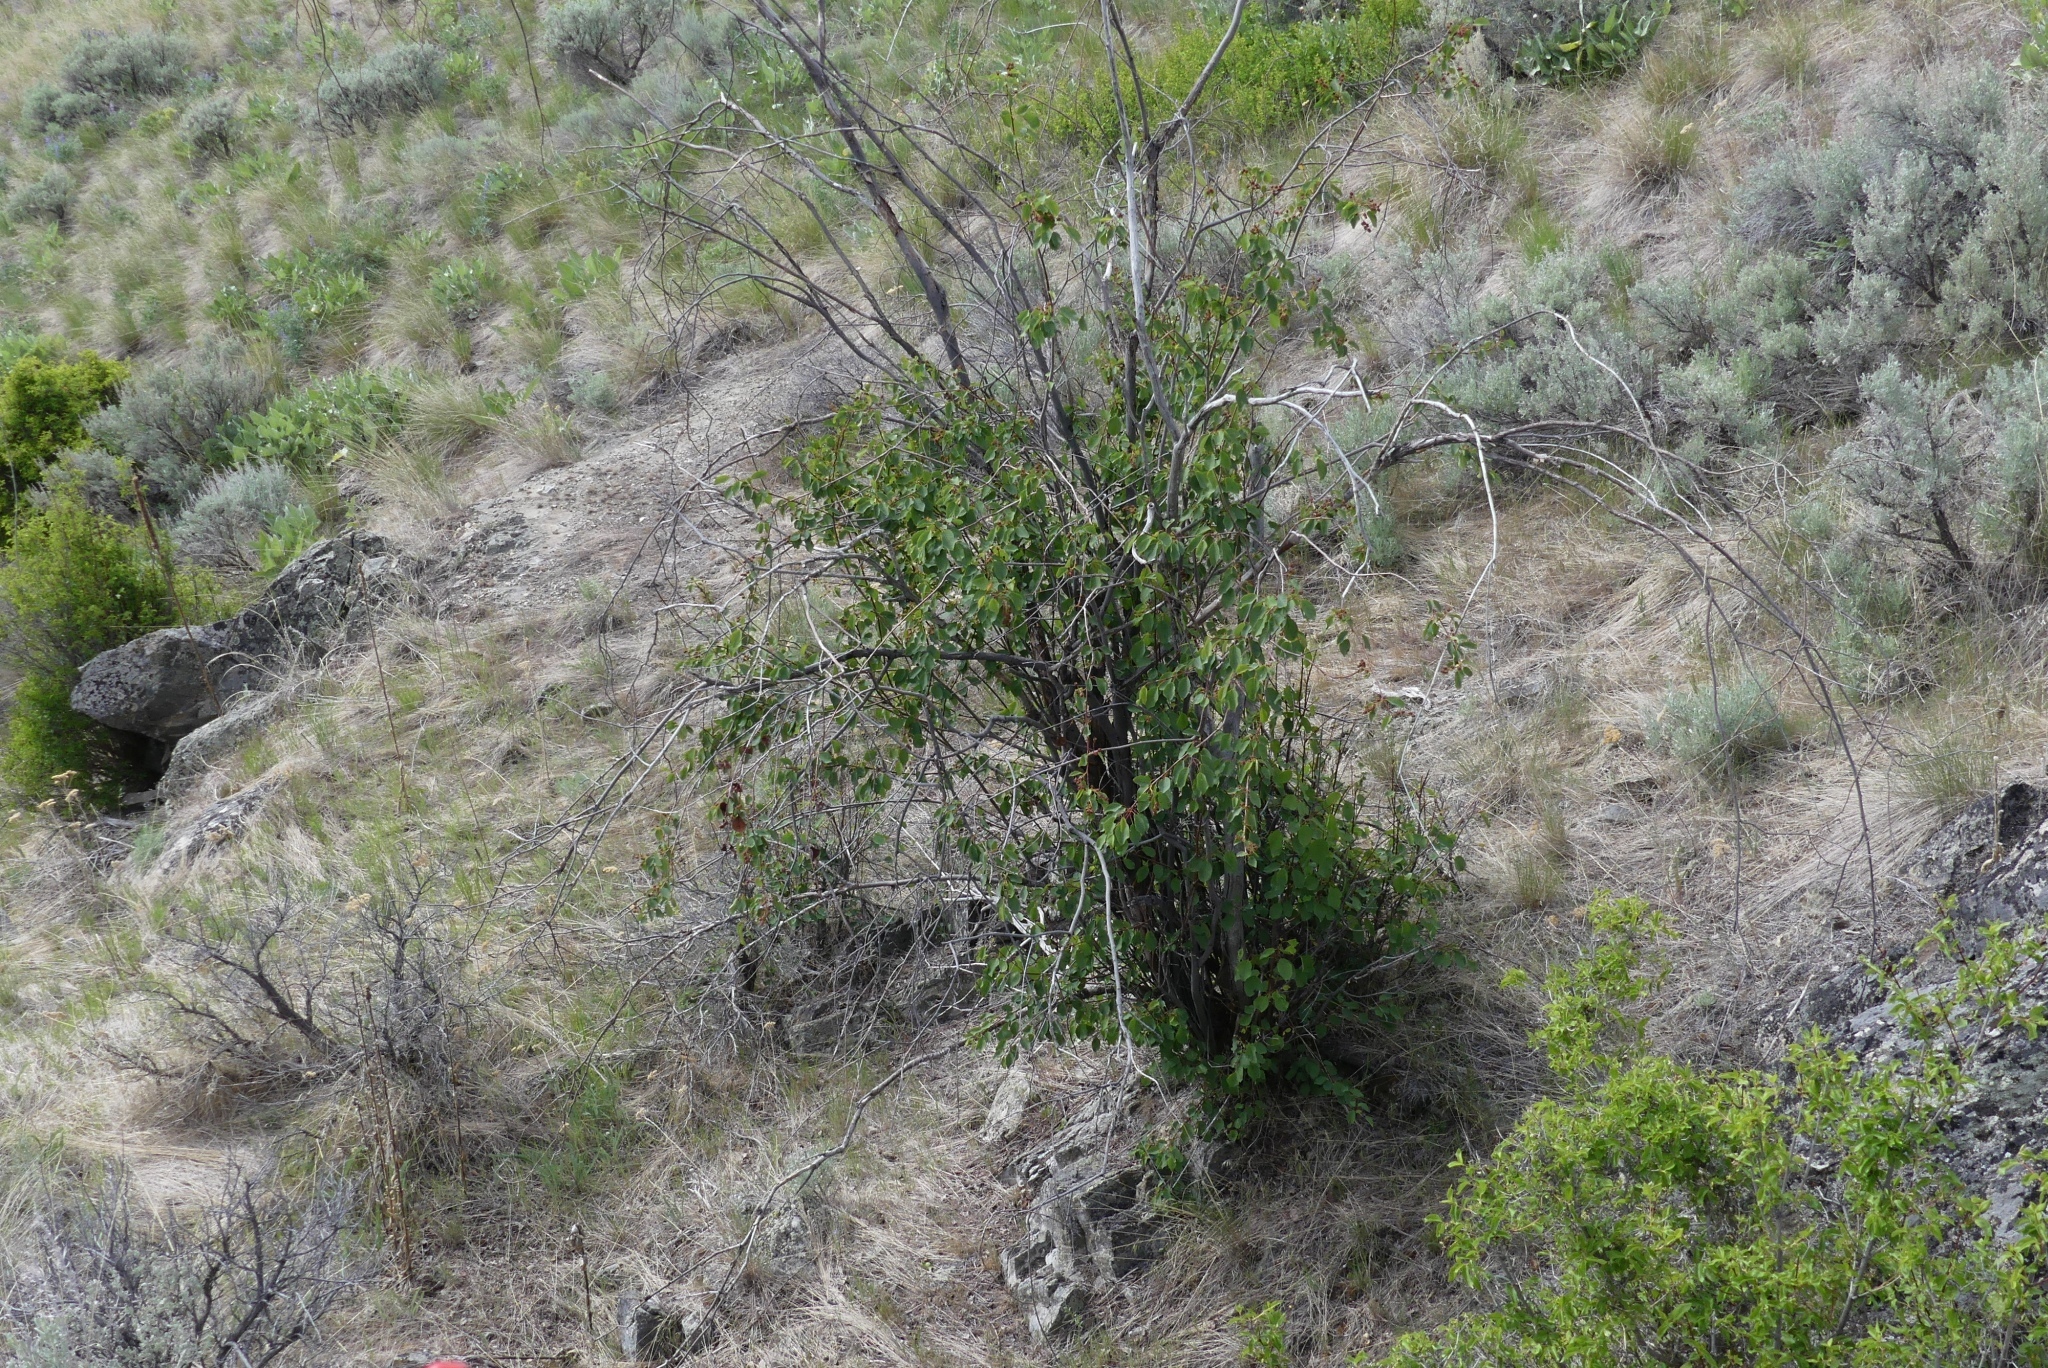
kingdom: Plantae
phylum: Tracheophyta
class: Magnoliopsida
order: Rosales
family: Rosaceae
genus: Amelanchier
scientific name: Amelanchier alnifolia
